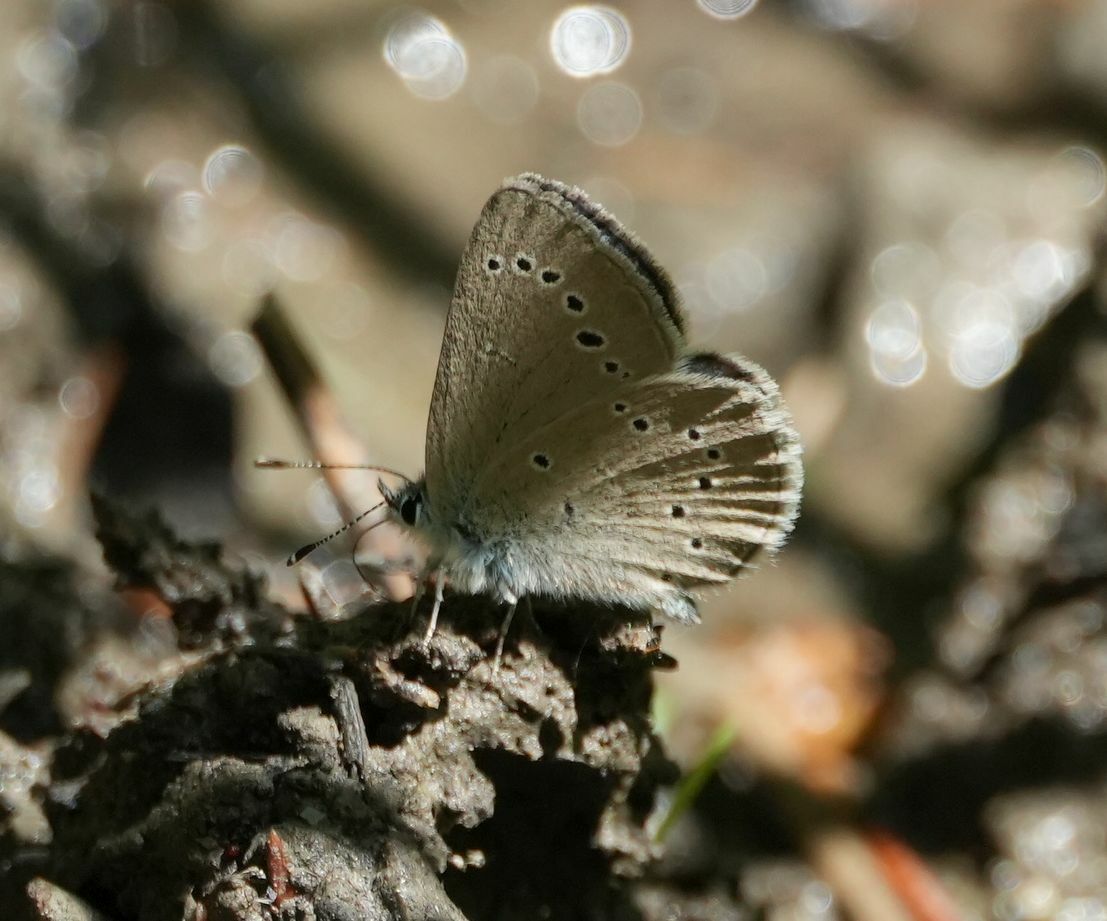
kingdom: Animalia
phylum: Arthropoda
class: Insecta
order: Lepidoptera
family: Lycaenidae
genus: Glaucopsyche
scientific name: Glaucopsyche lygdamus
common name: Silvery blue
